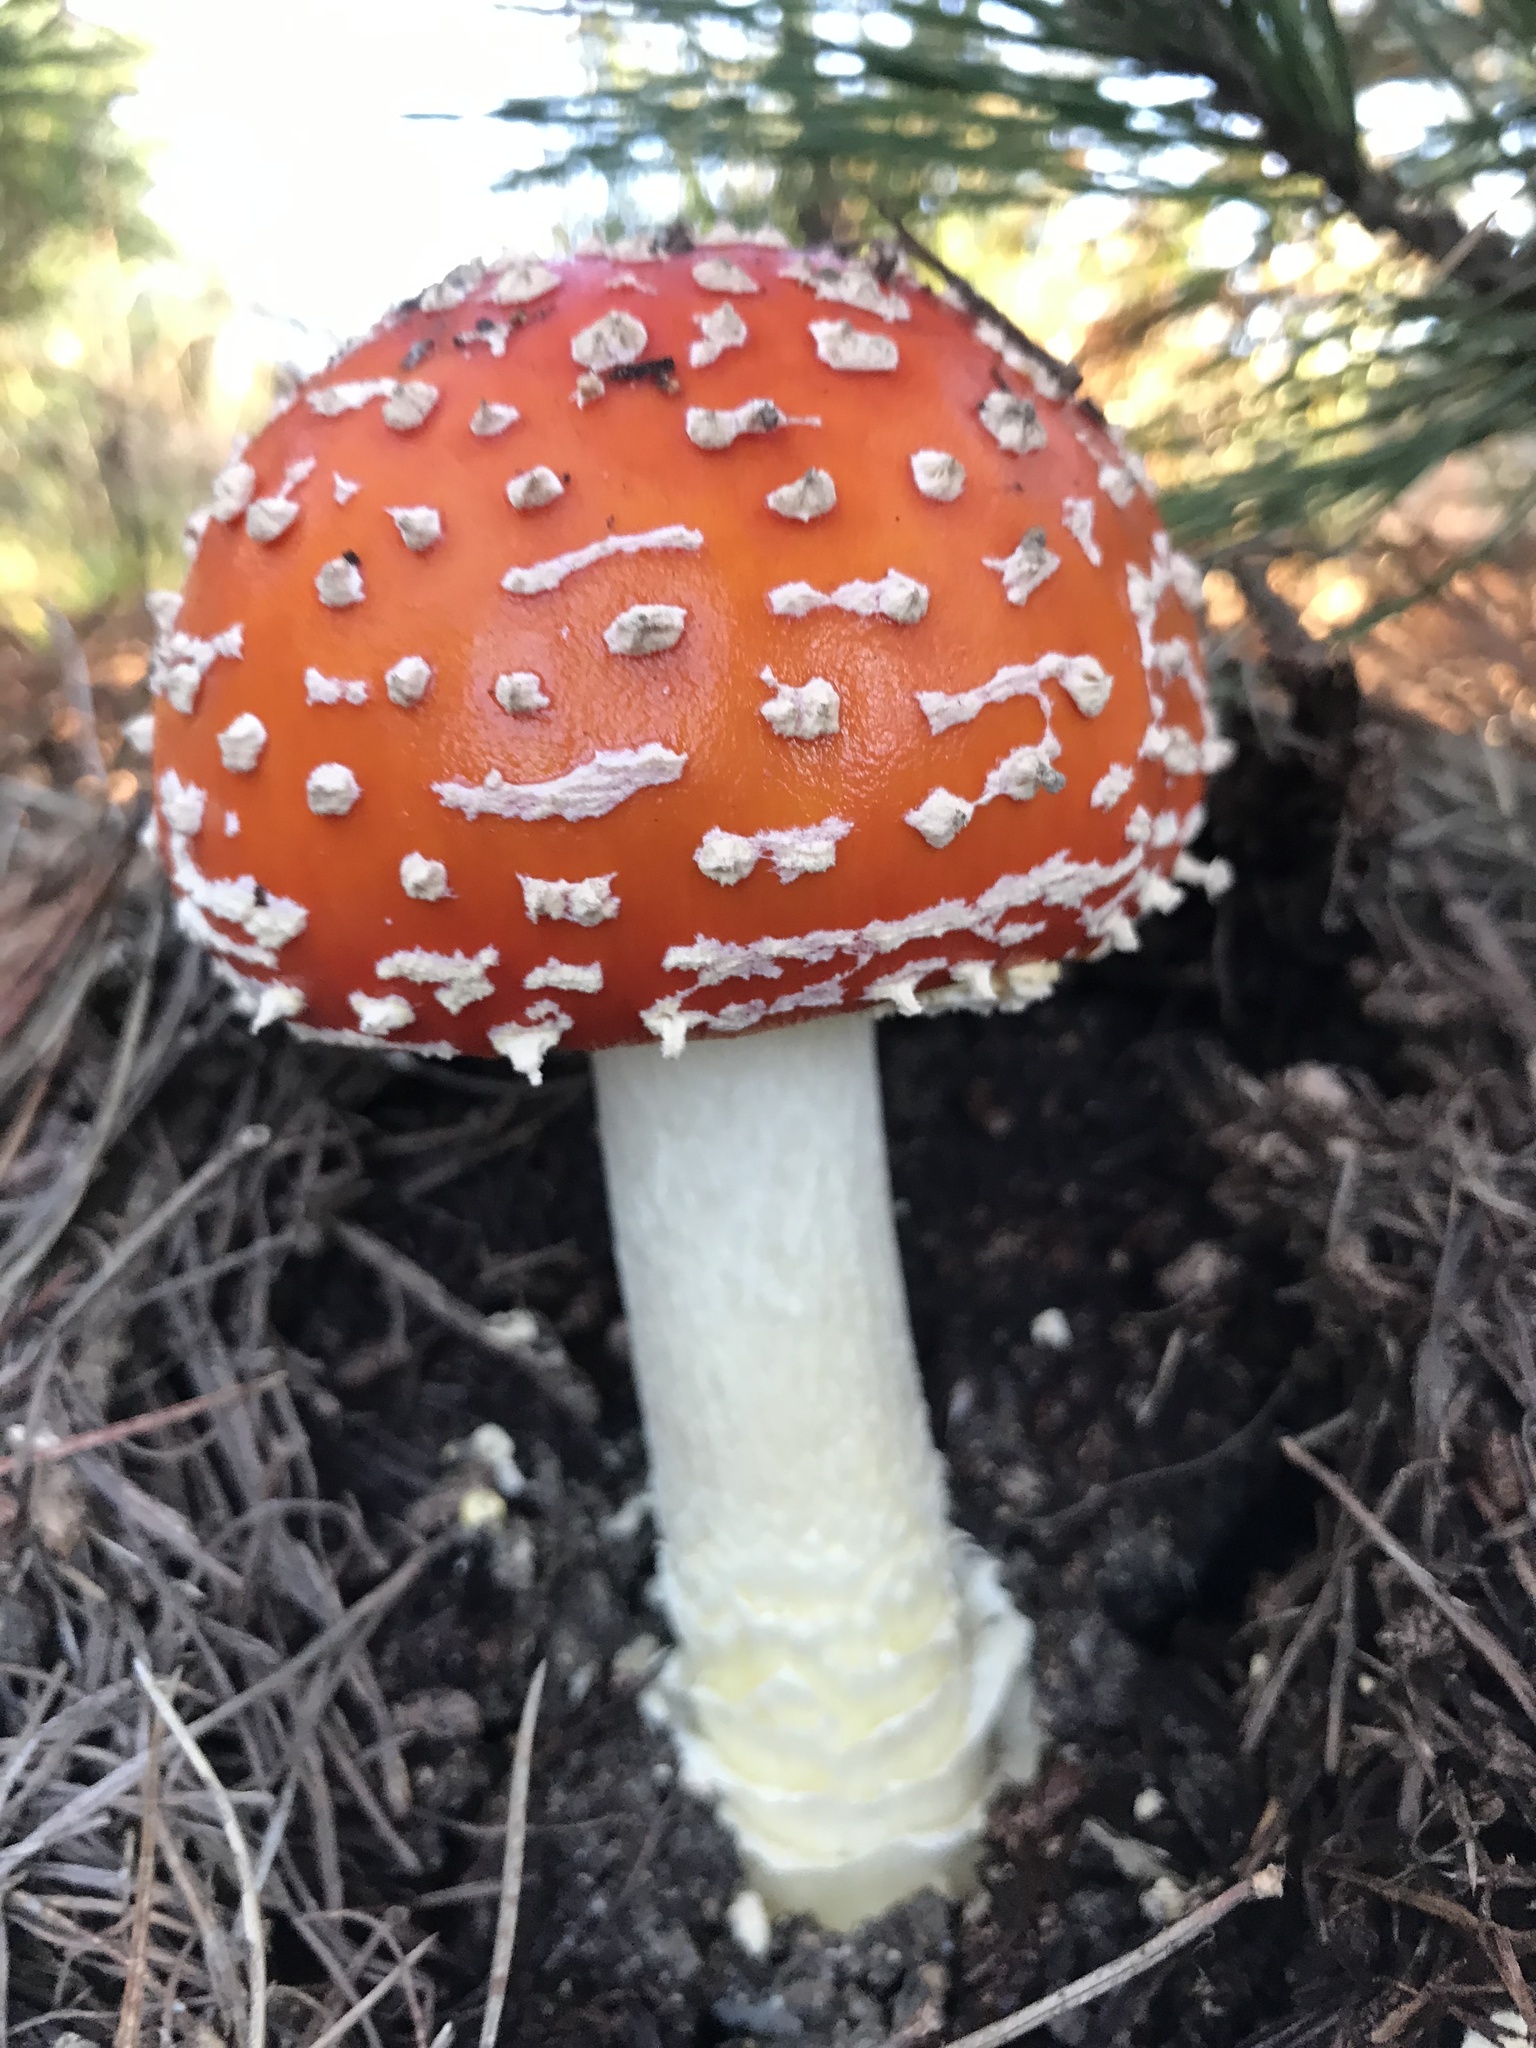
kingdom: Fungi
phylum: Basidiomycota
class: Agaricomycetes
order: Agaricales
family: Amanitaceae
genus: Amanita
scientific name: Amanita muscaria
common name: Fly agaric
